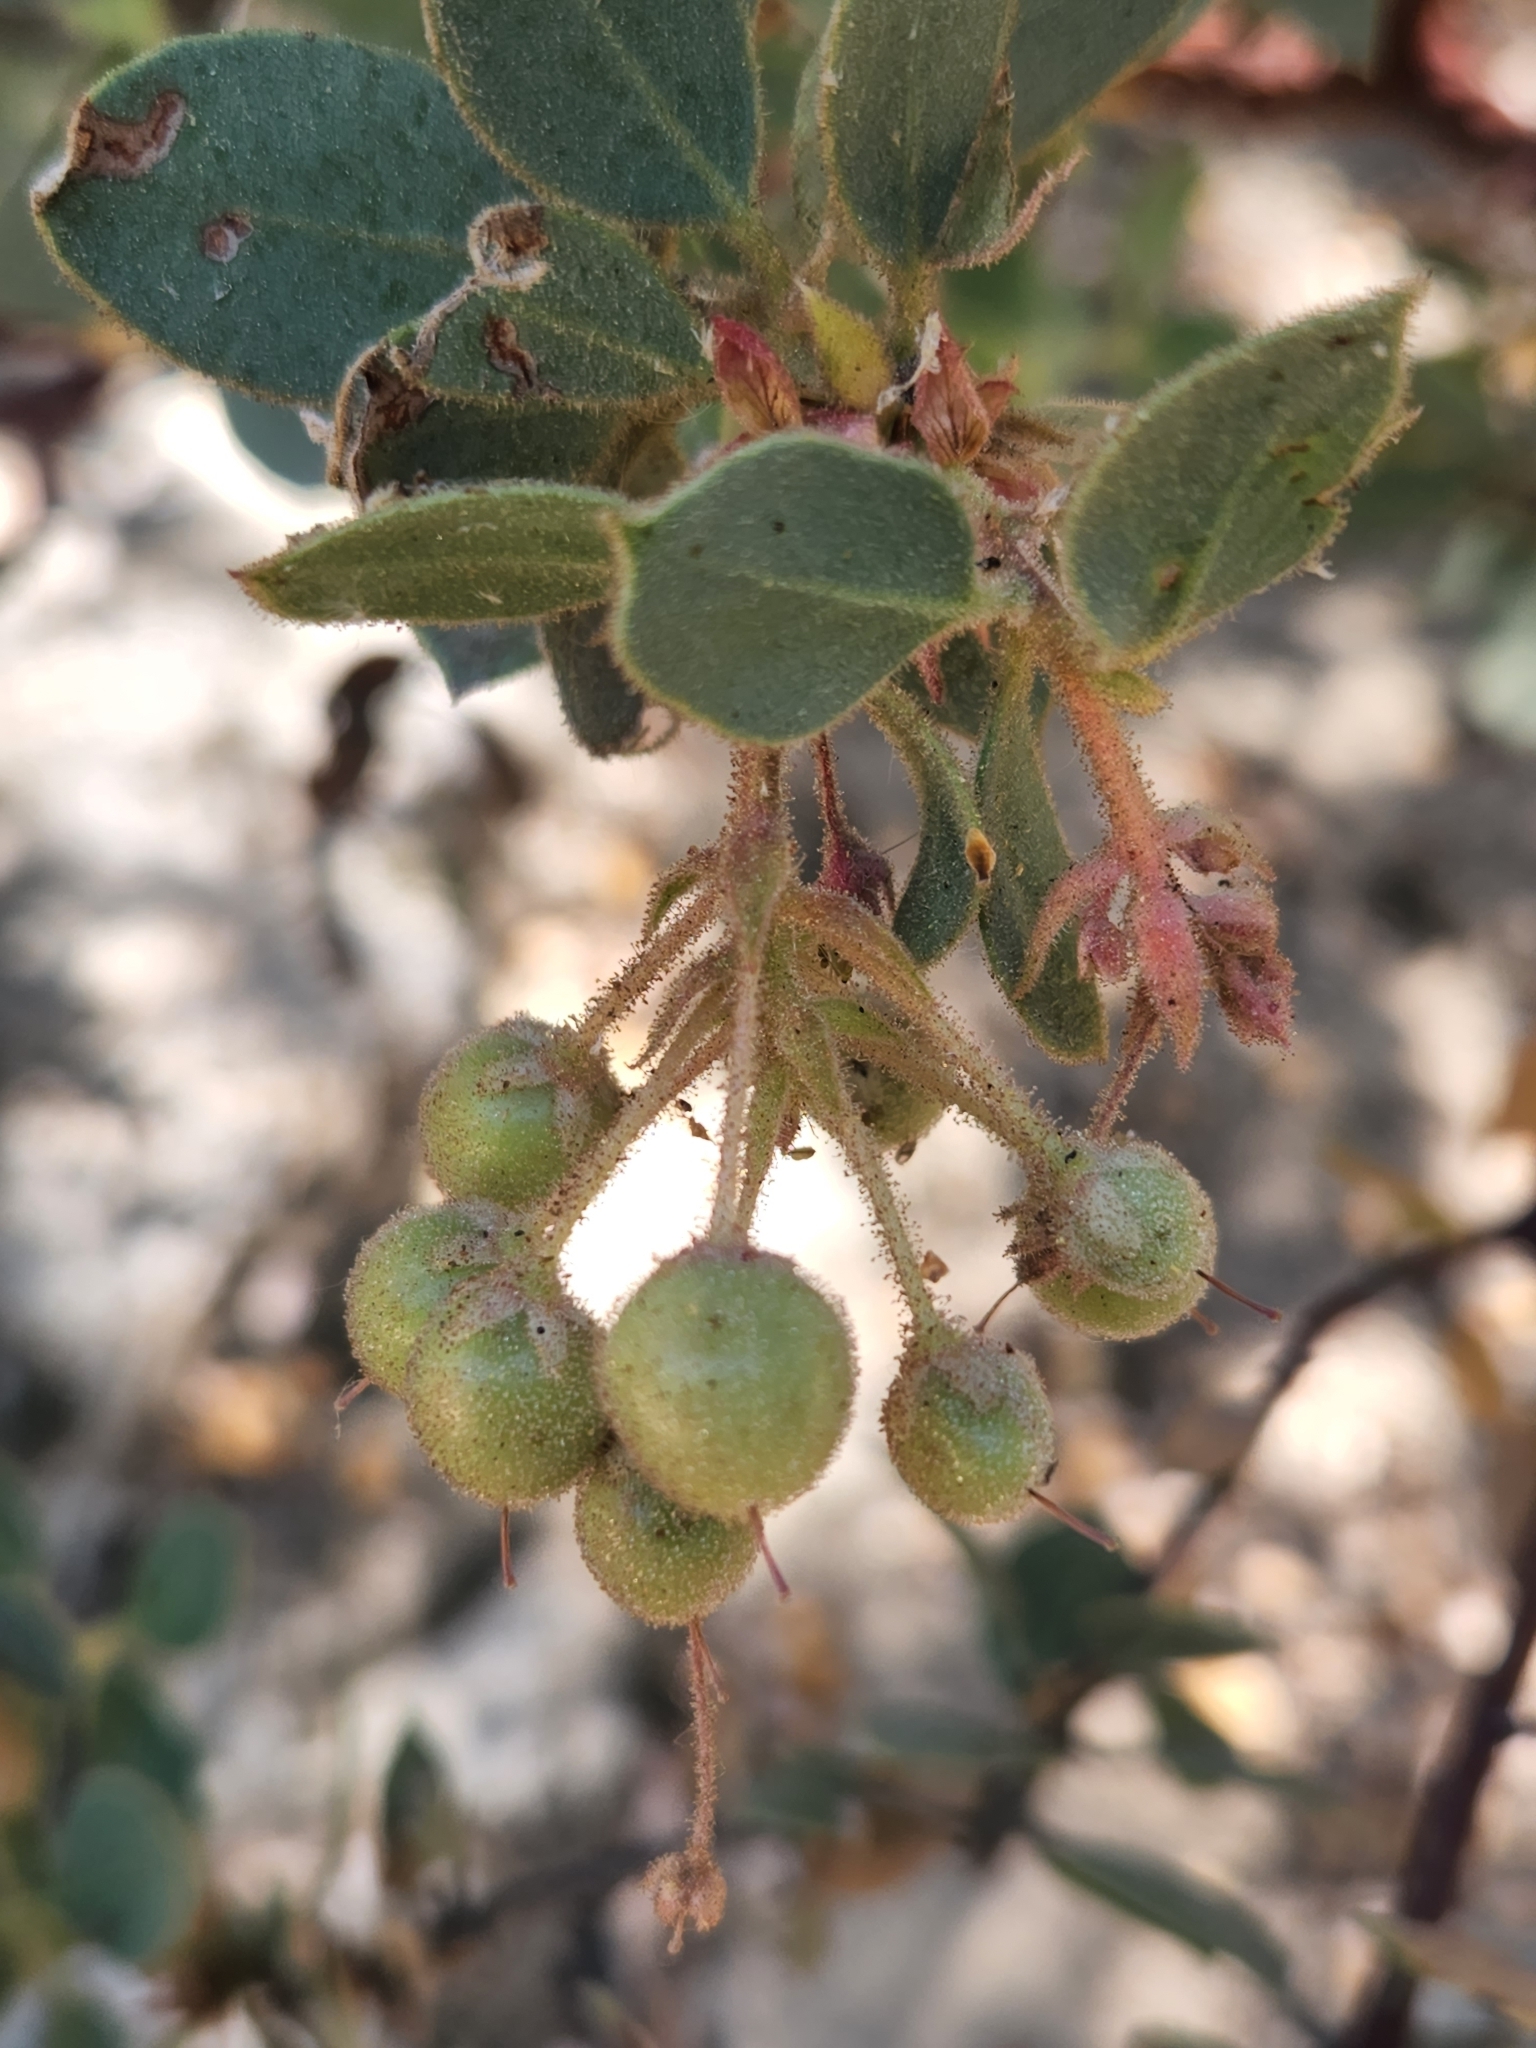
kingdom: Plantae
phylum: Tracheophyta
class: Magnoliopsida
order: Ericales
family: Ericaceae
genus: Arctostaphylos
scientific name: Arctostaphylos pringlei
